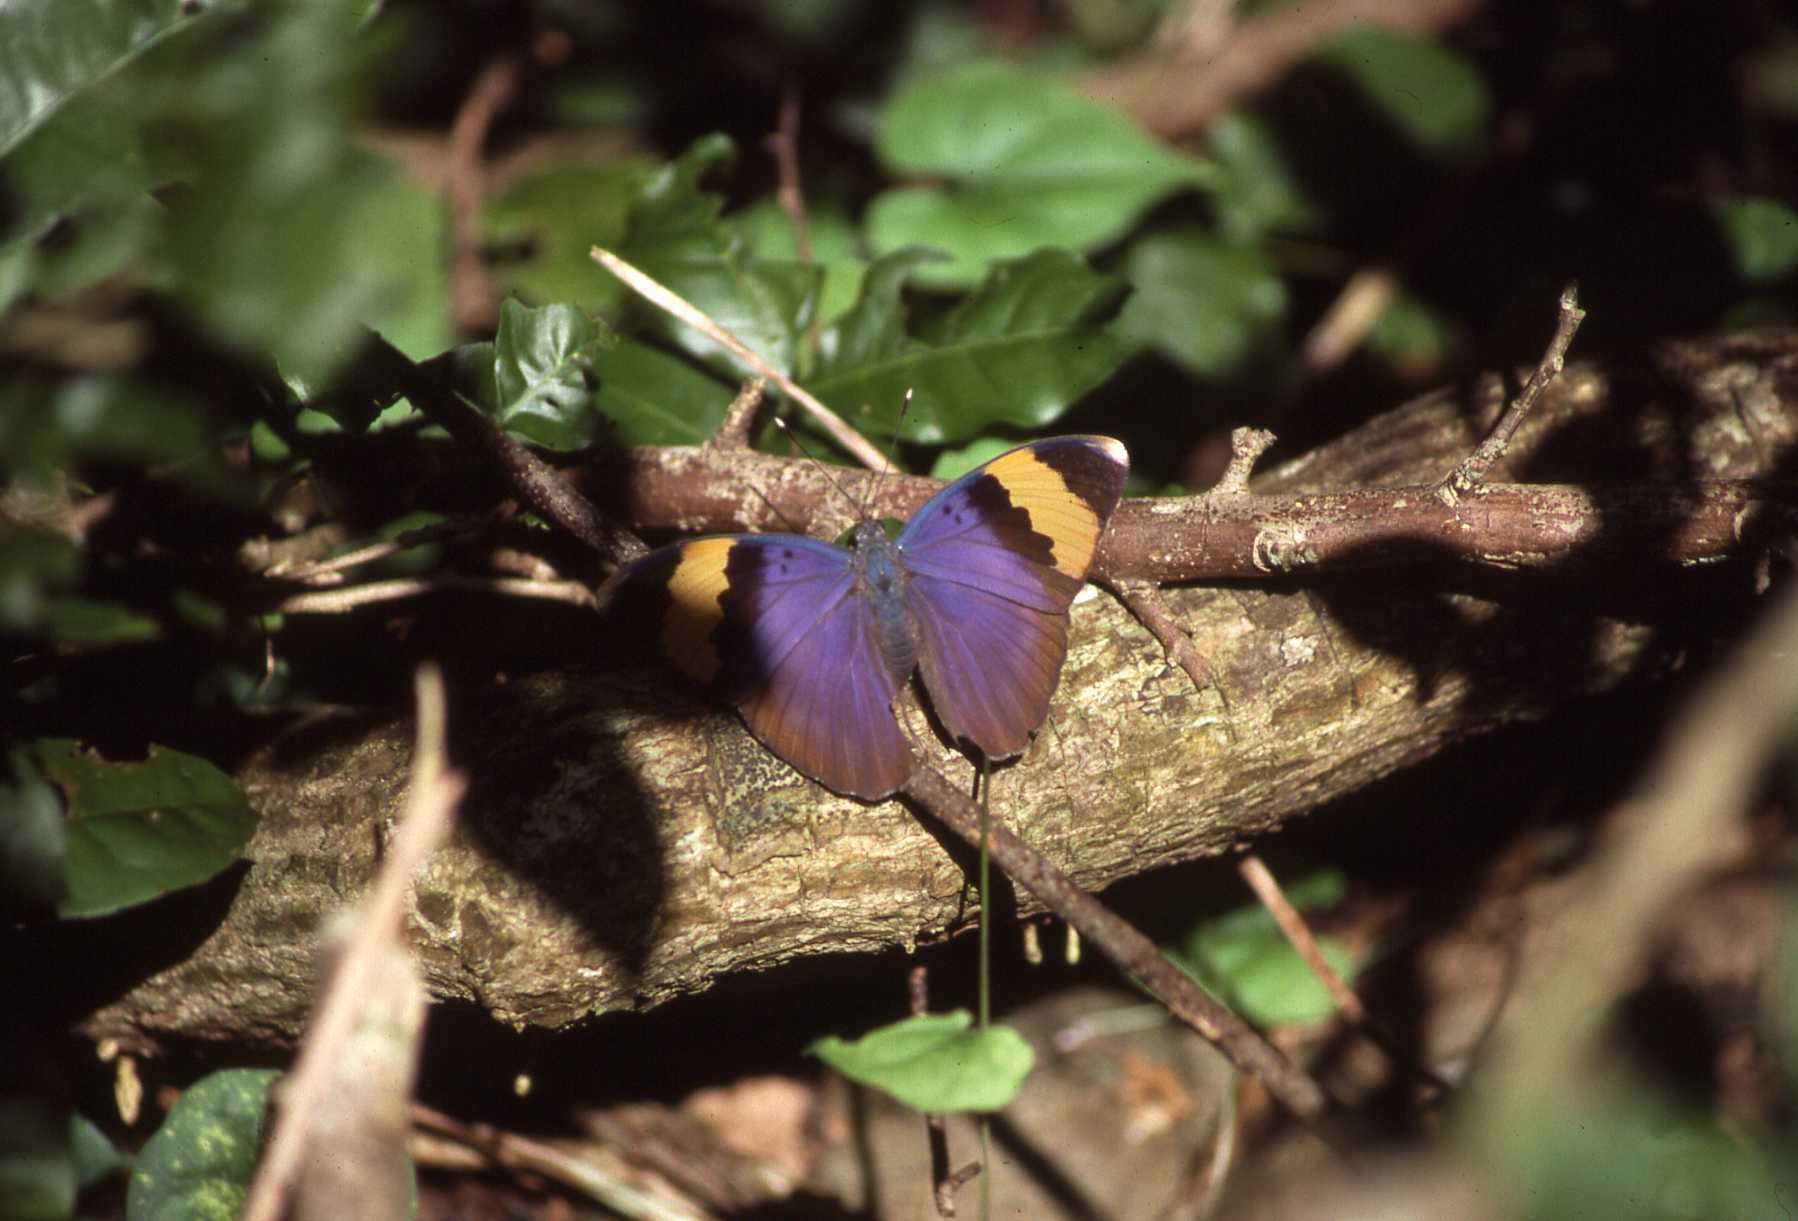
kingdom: Animalia
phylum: Arthropoda
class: Insecta
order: Lepidoptera
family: Nymphalidae
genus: Euphaedra
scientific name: Euphaedra neophron
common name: Gold-banded forester
